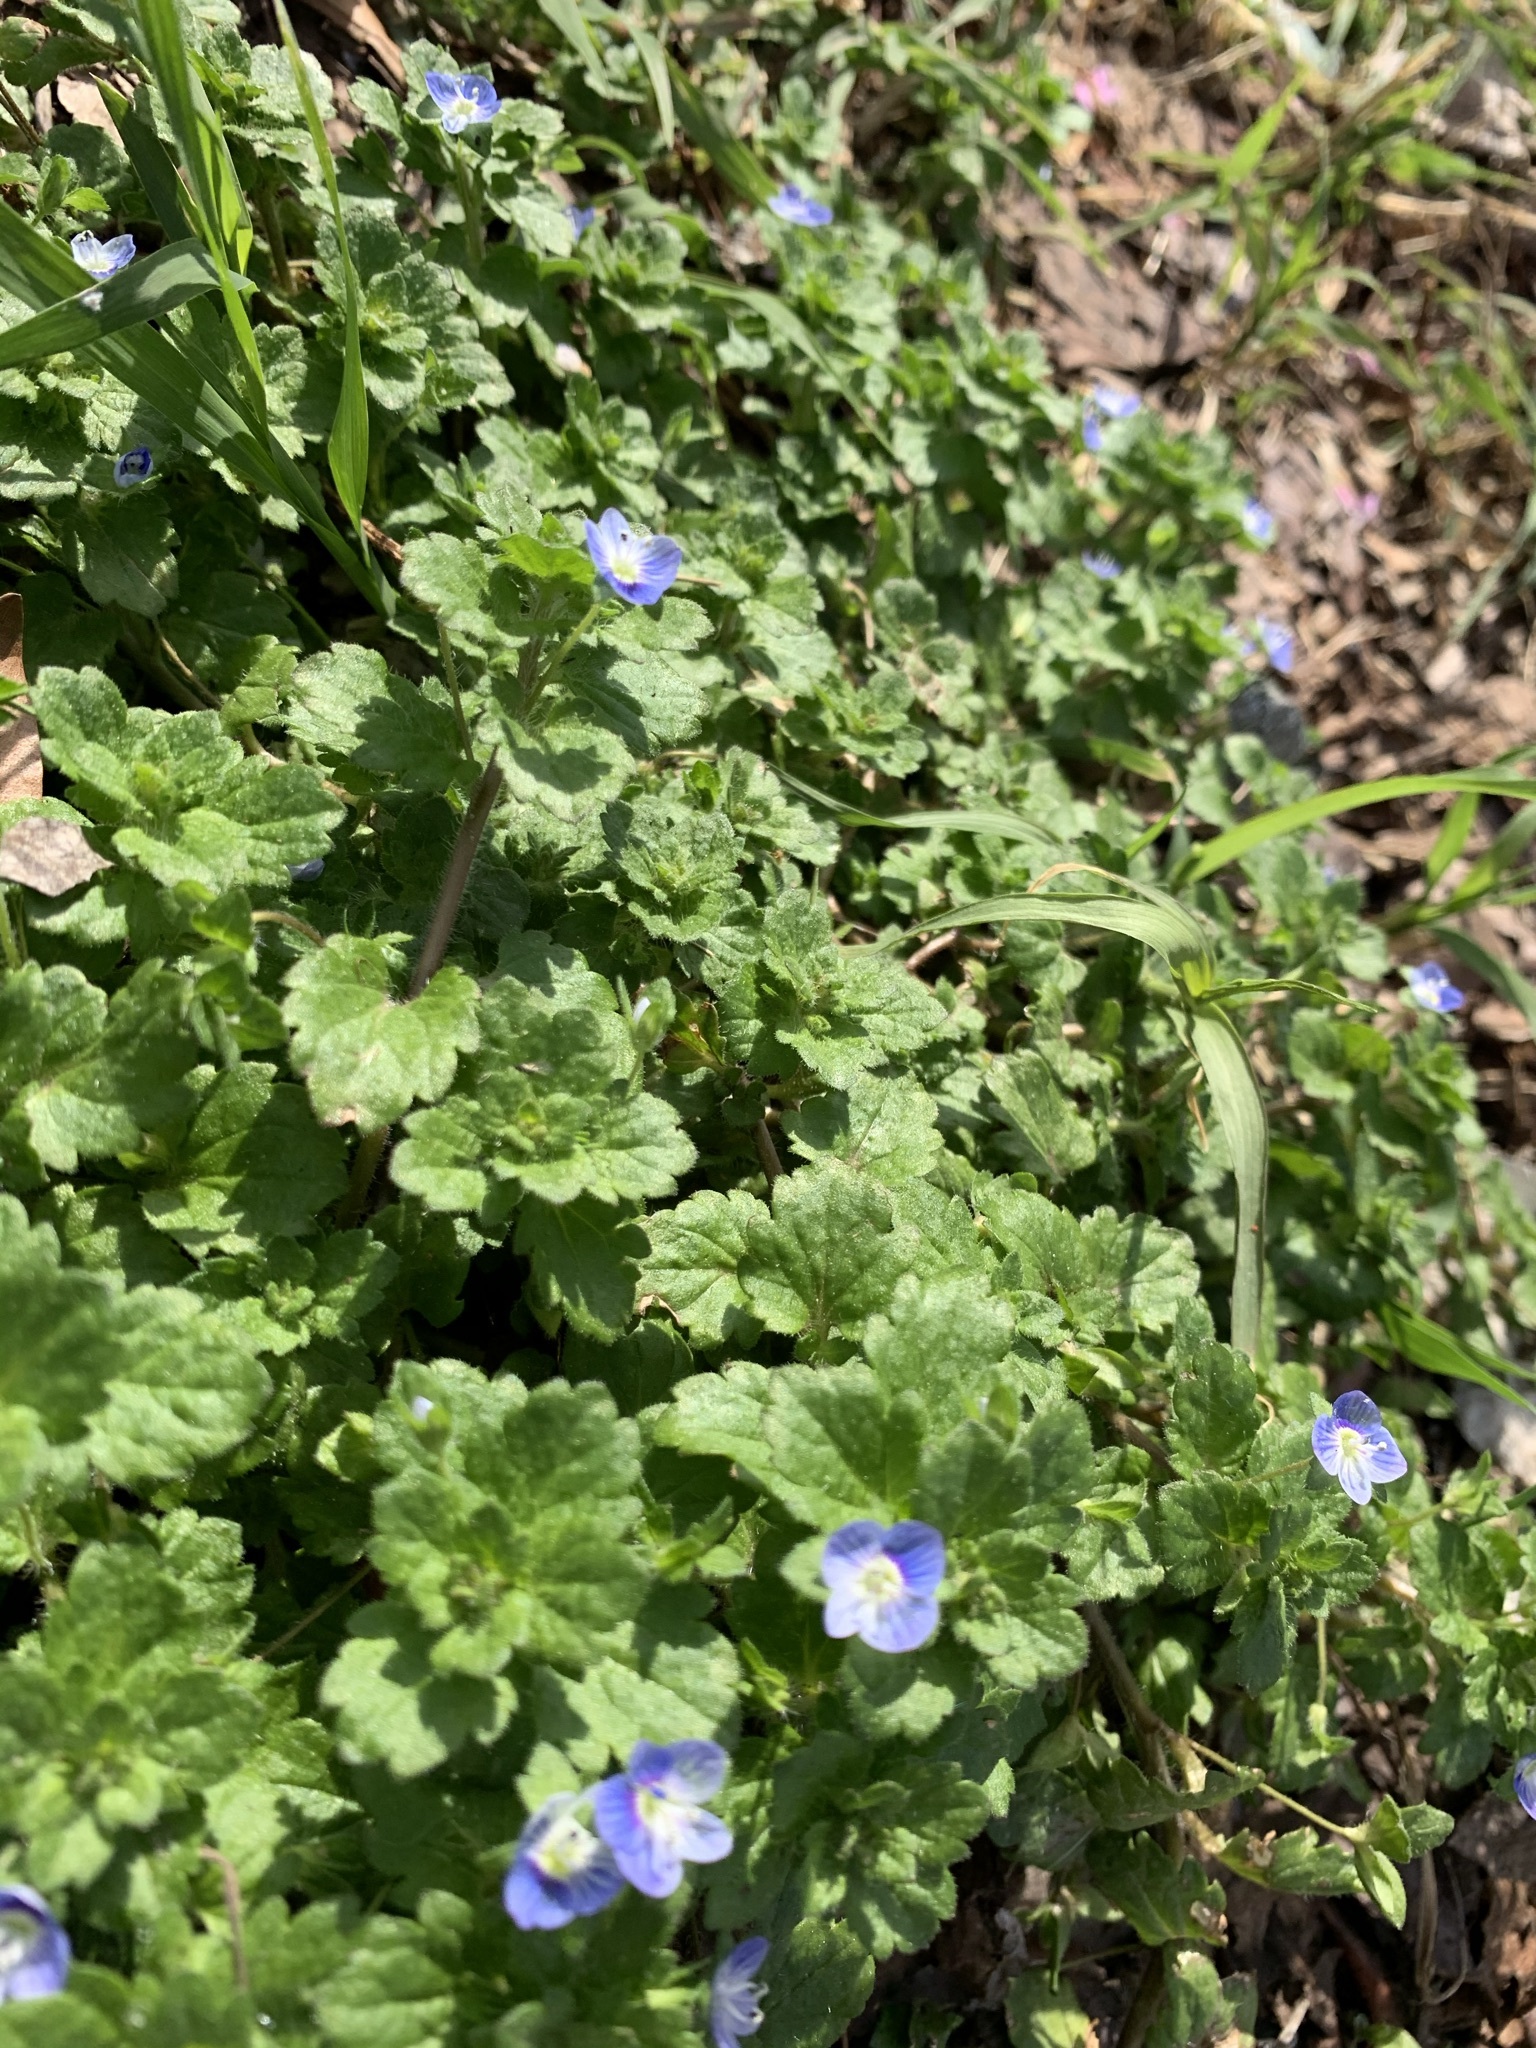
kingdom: Plantae
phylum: Tracheophyta
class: Magnoliopsida
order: Lamiales
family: Plantaginaceae
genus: Veronica
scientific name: Veronica persica
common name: Common field-speedwell
